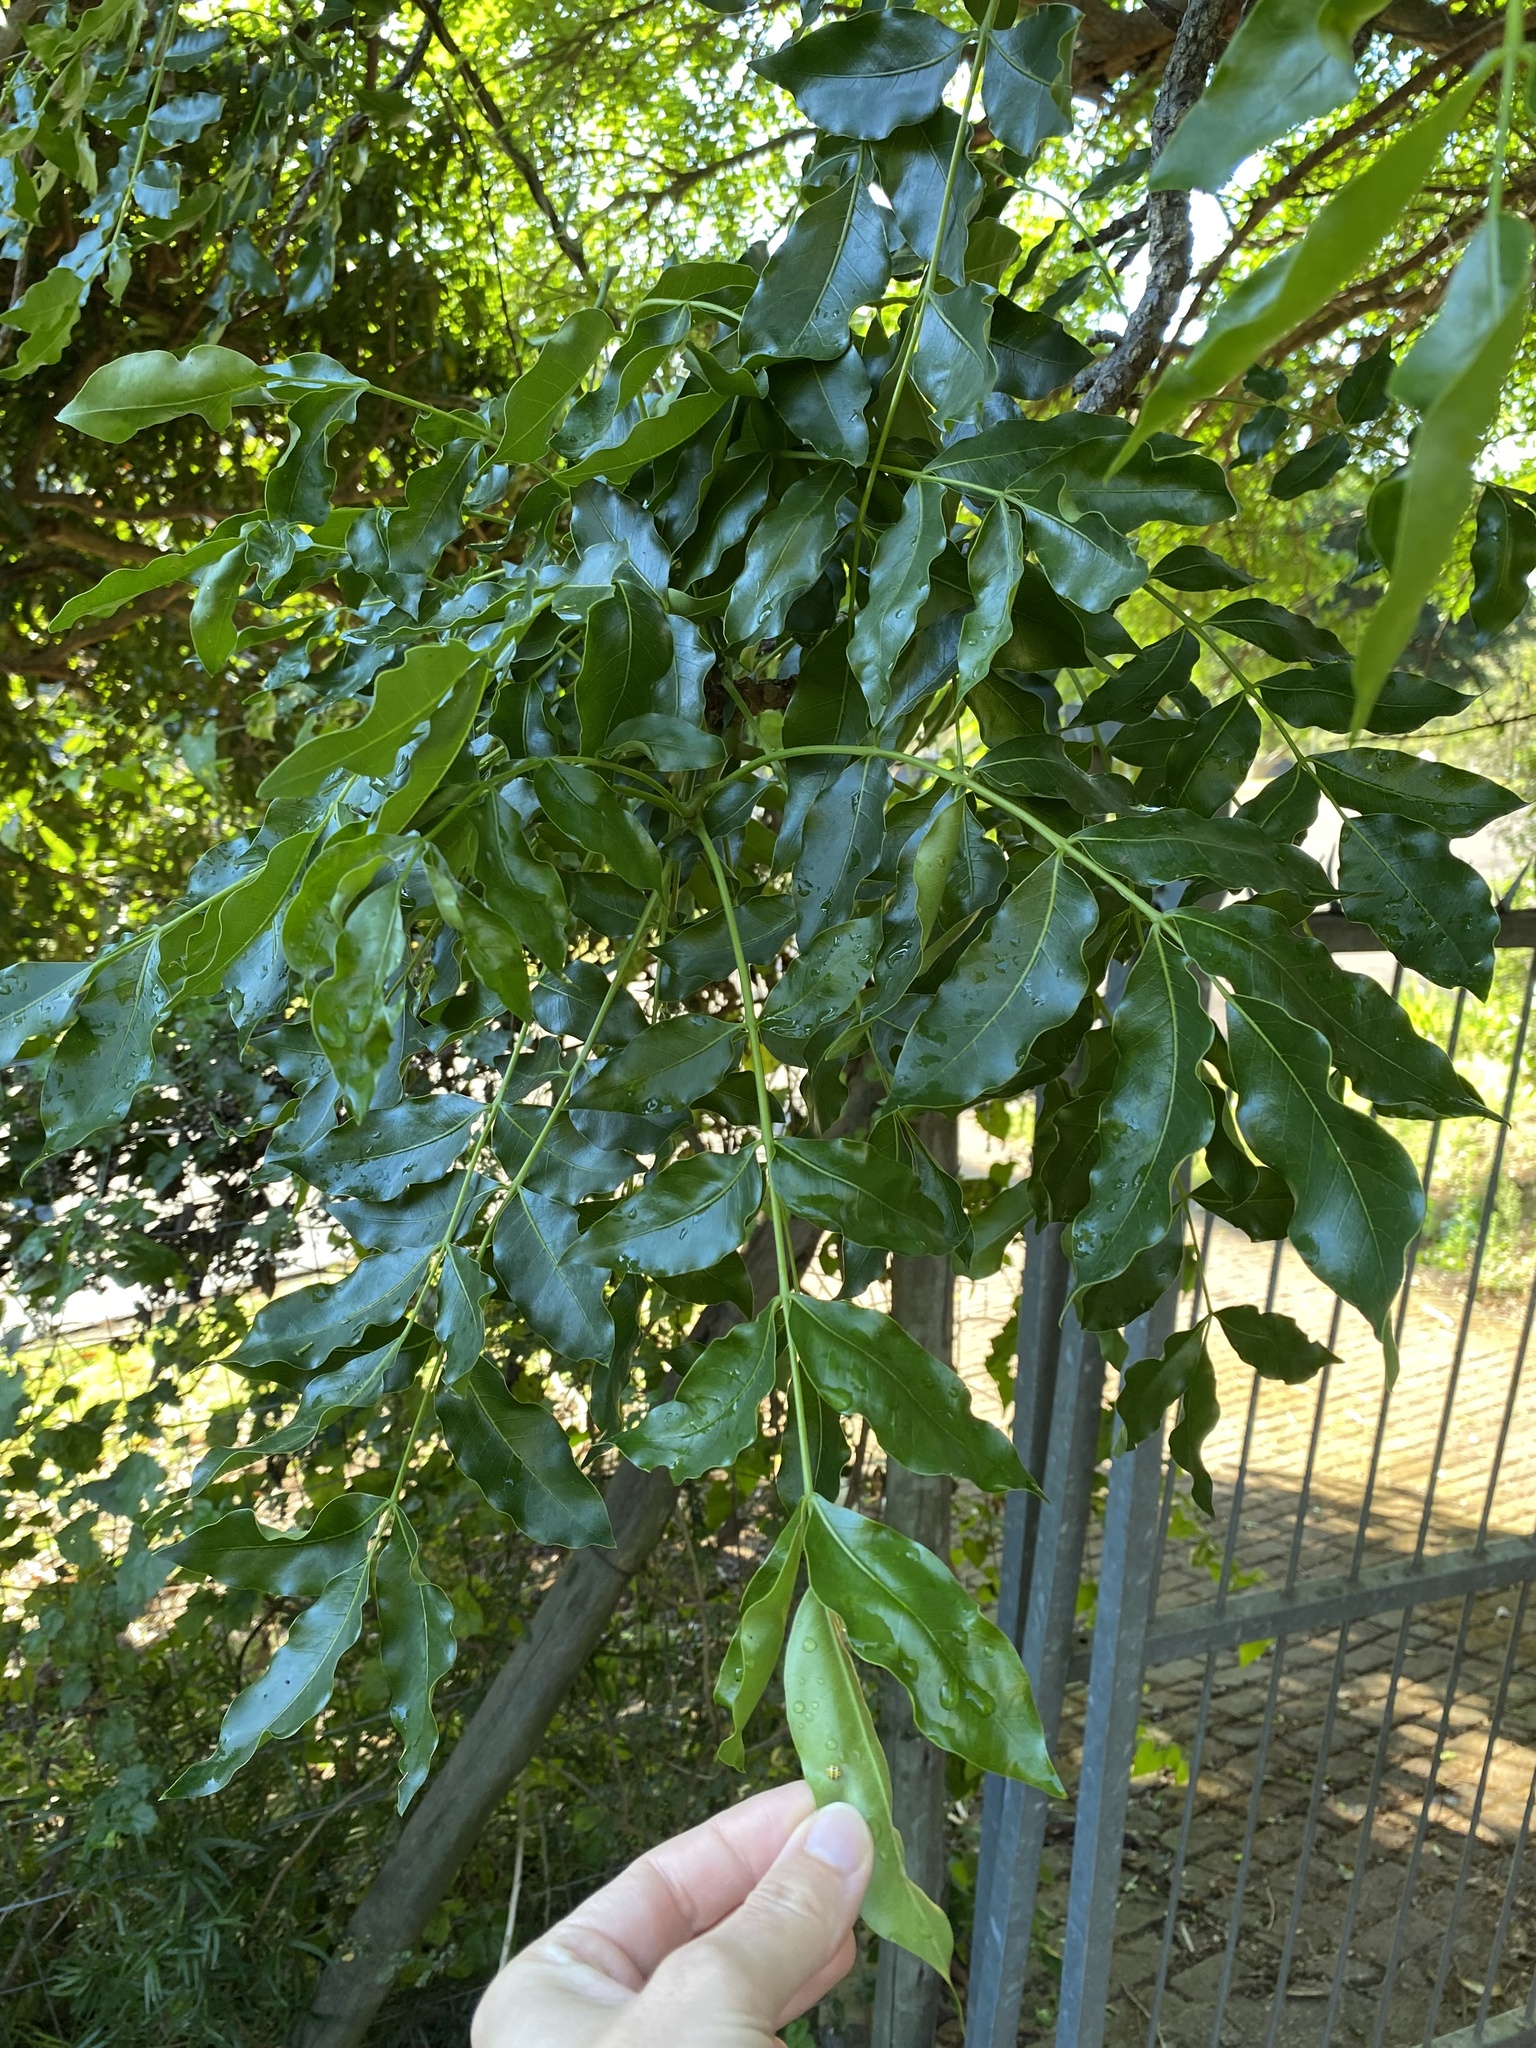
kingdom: Plantae
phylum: Tracheophyta
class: Magnoliopsida
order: Sapindales
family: Meliaceae
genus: Ekebergia
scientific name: Ekebergia capensis
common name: Cape-ash
